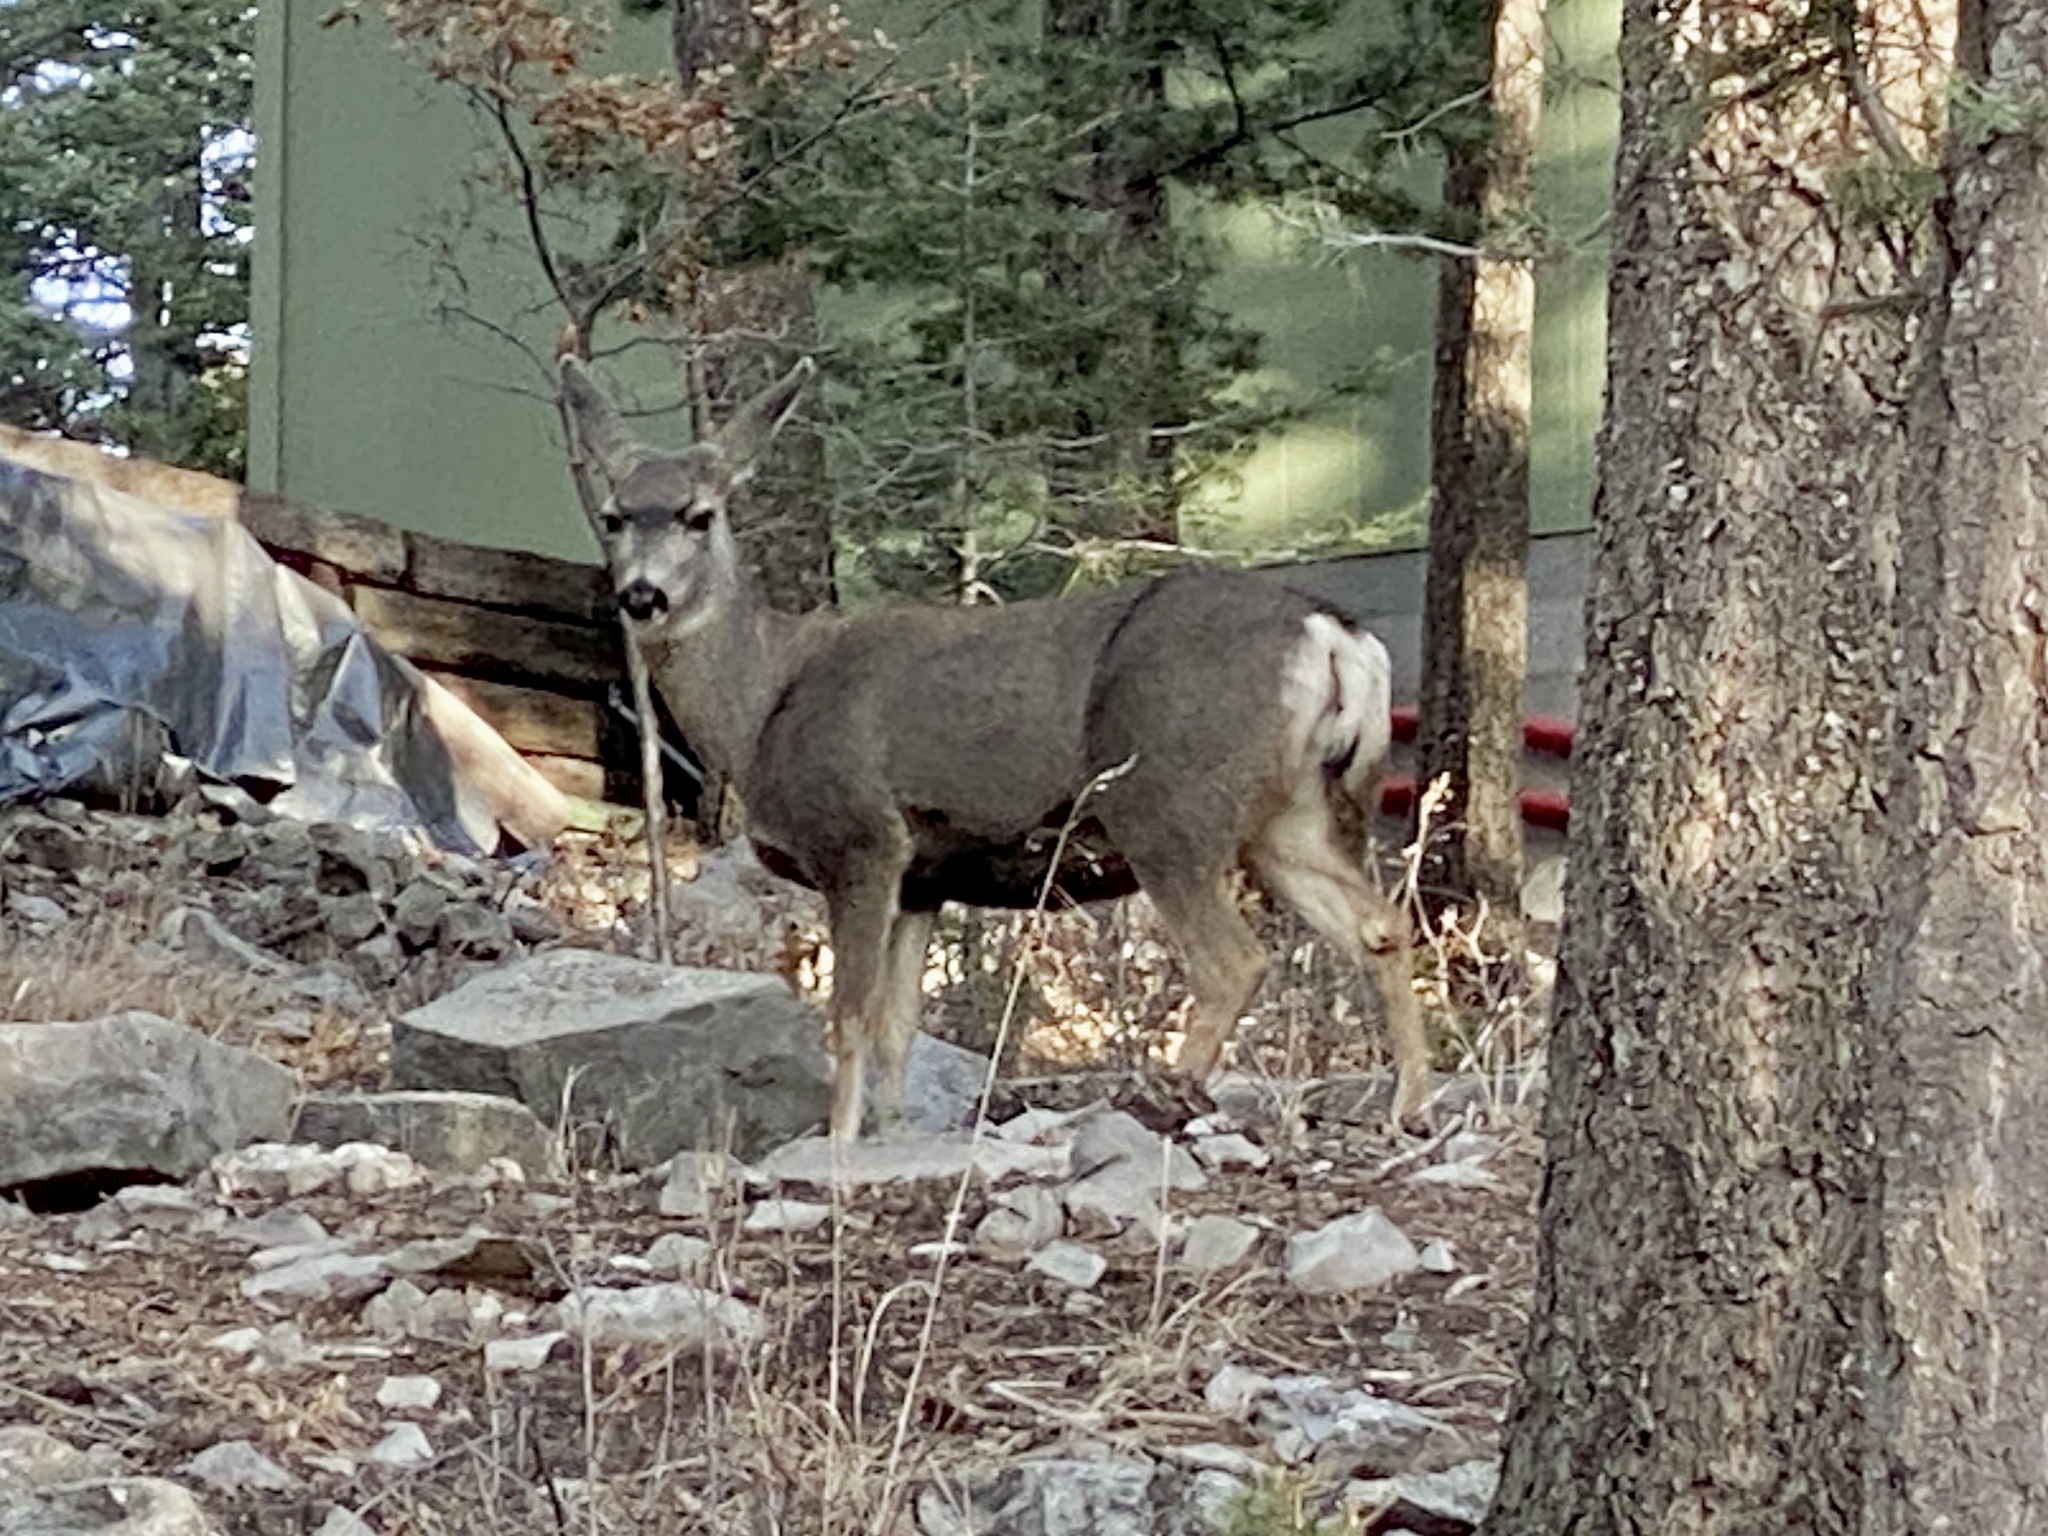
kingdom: Animalia
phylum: Chordata
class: Mammalia
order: Artiodactyla
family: Cervidae
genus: Odocoileus
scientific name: Odocoileus hemionus
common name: Mule deer
